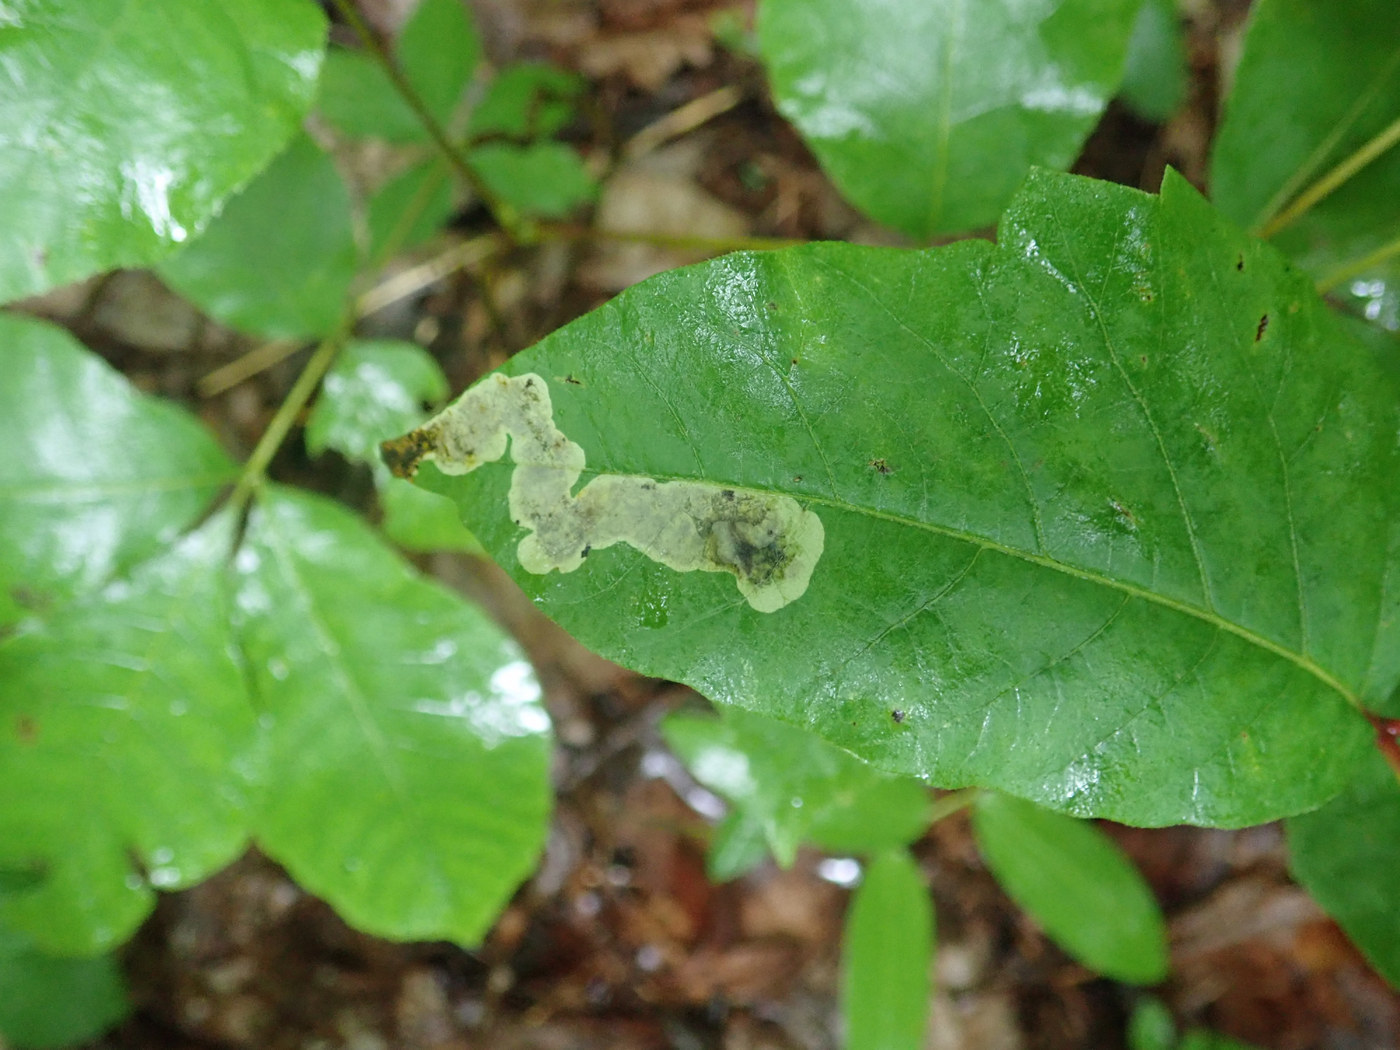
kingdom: Animalia
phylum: Arthropoda
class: Insecta
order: Lepidoptera
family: Gracillariidae
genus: Cameraria
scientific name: Cameraria guttifinitella
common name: Poison ivy leaf-miner moth
